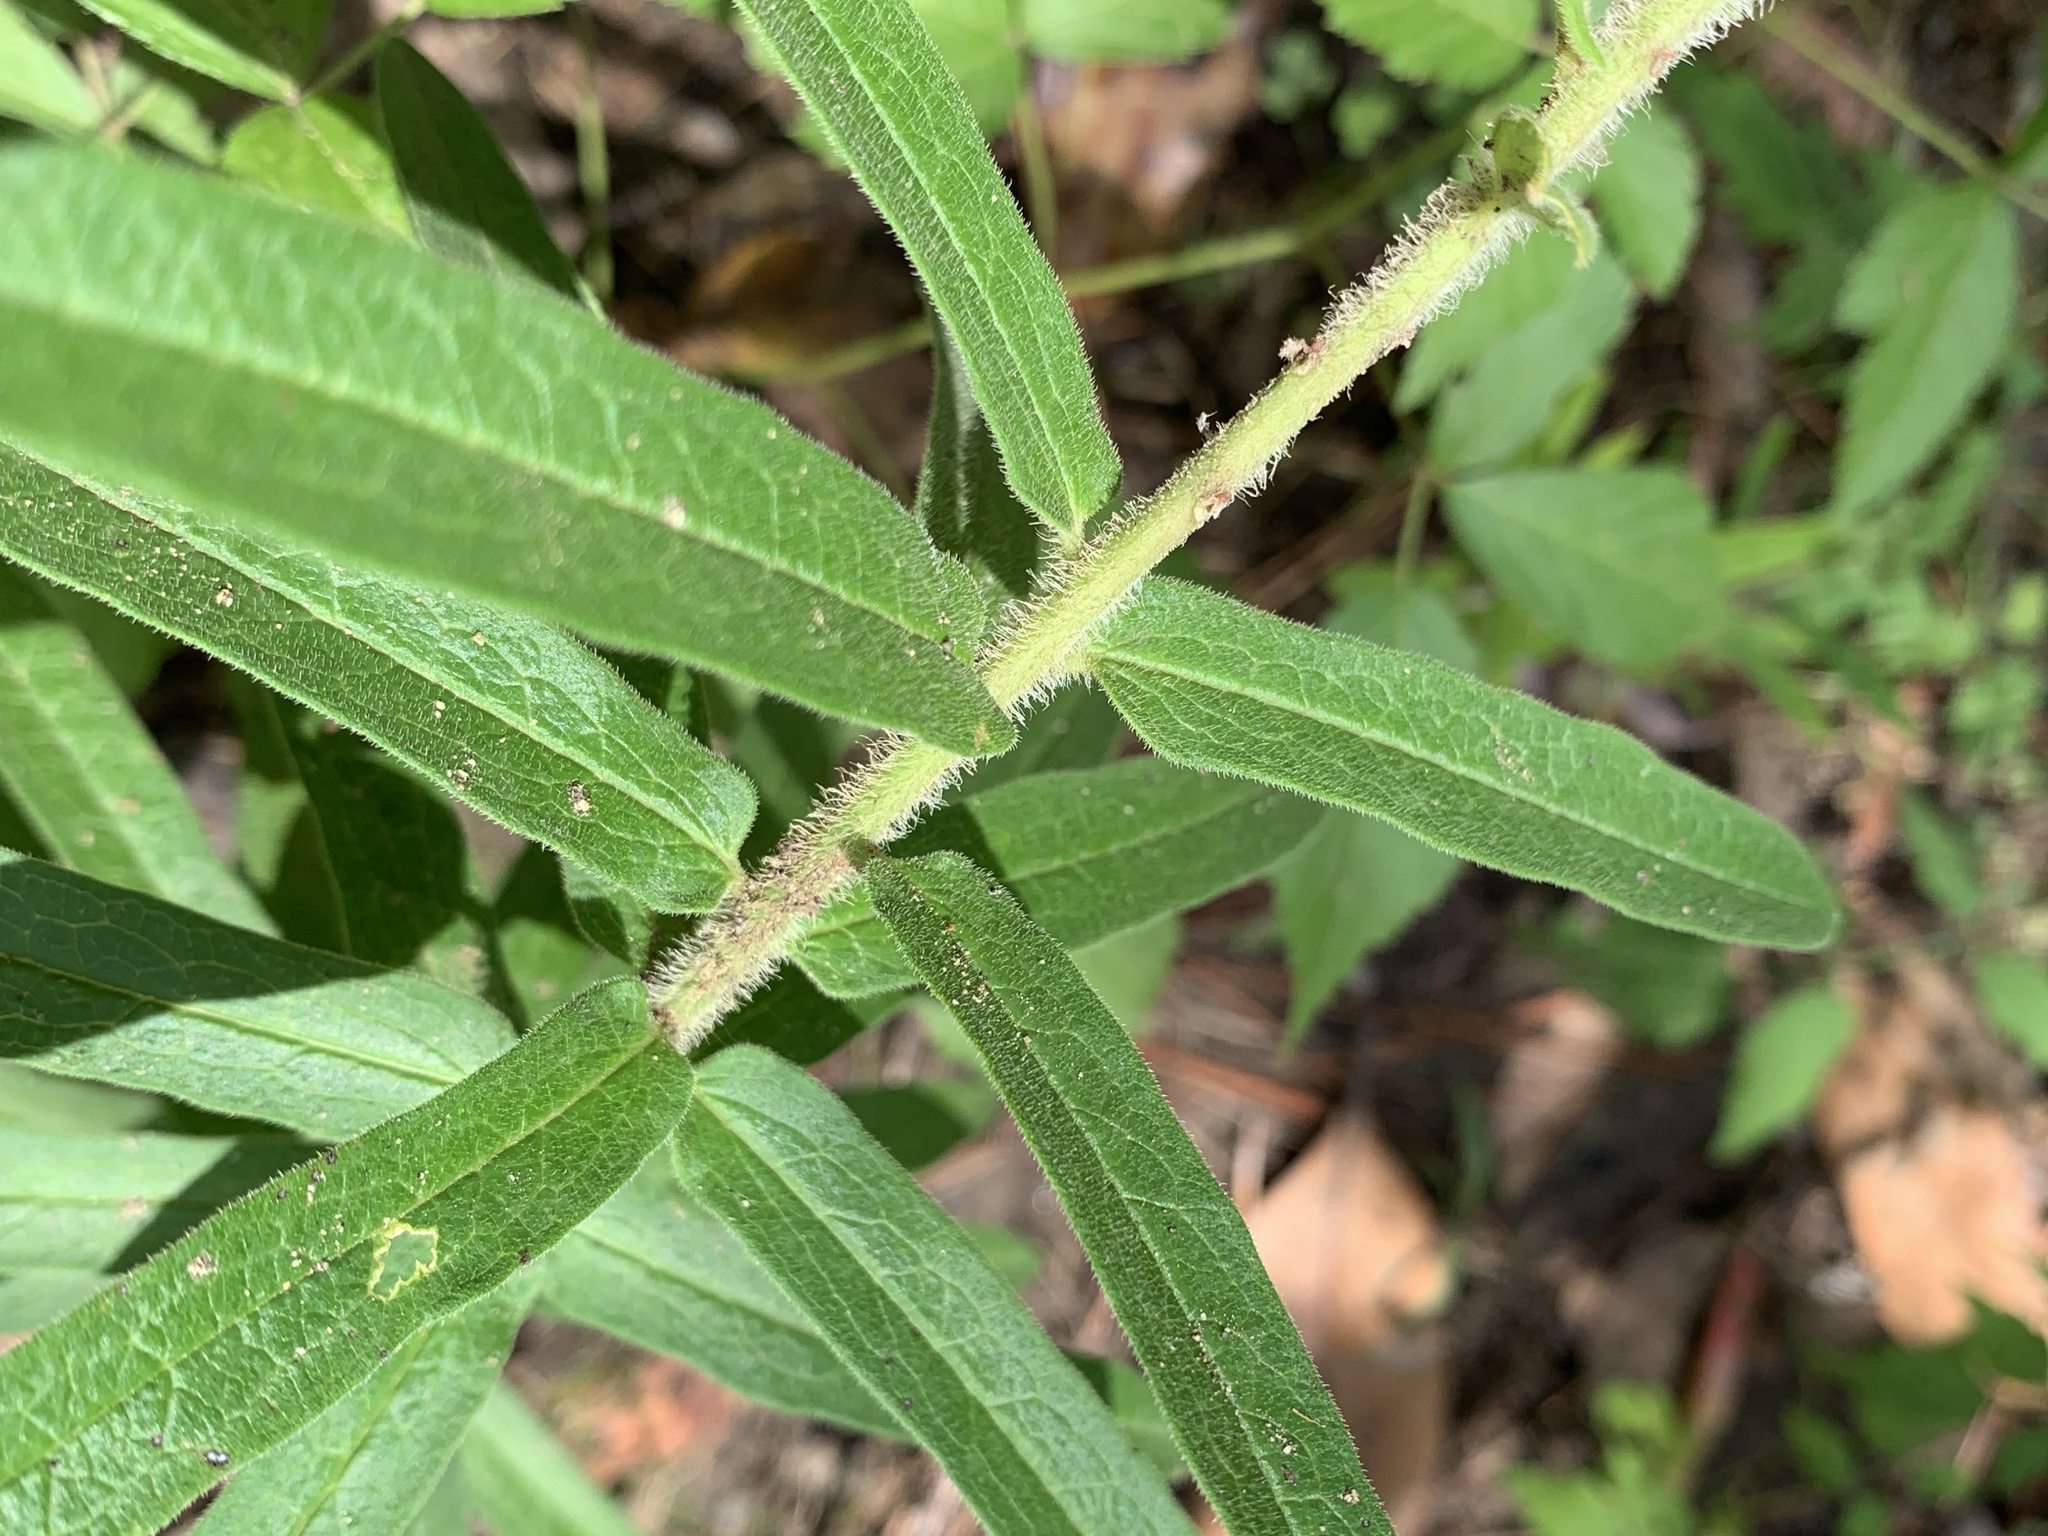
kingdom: Plantae
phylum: Tracheophyta
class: Magnoliopsida
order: Gentianales
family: Apocynaceae
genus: Asclepias
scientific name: Asclepias tuberosa
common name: Butterfly milkweed
